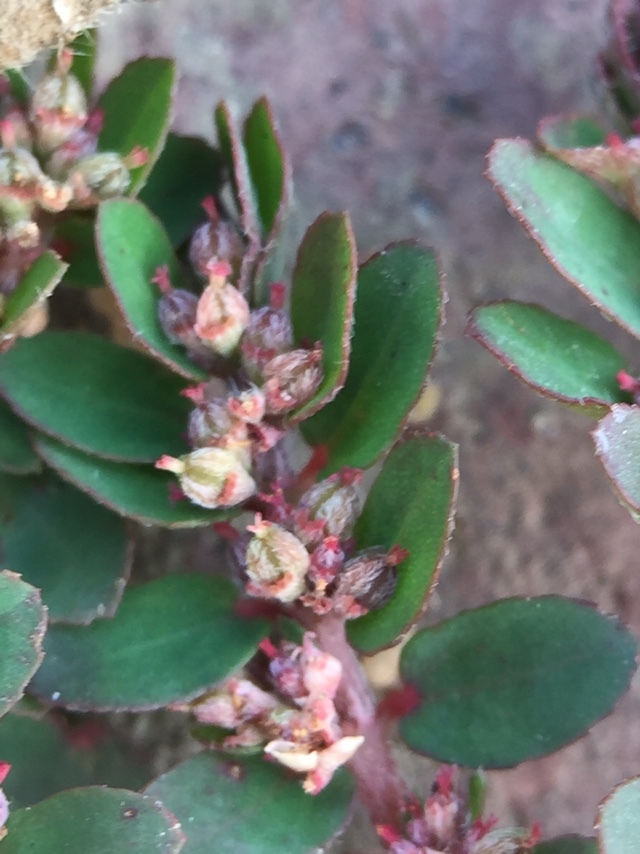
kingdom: Plantae
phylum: Tracheophyta
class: Magnoliopsida
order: Malpighiales
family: Euphorbiaceae
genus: Euphorbia
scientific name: Euphorbia thymifolia
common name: Gulf sandmat
